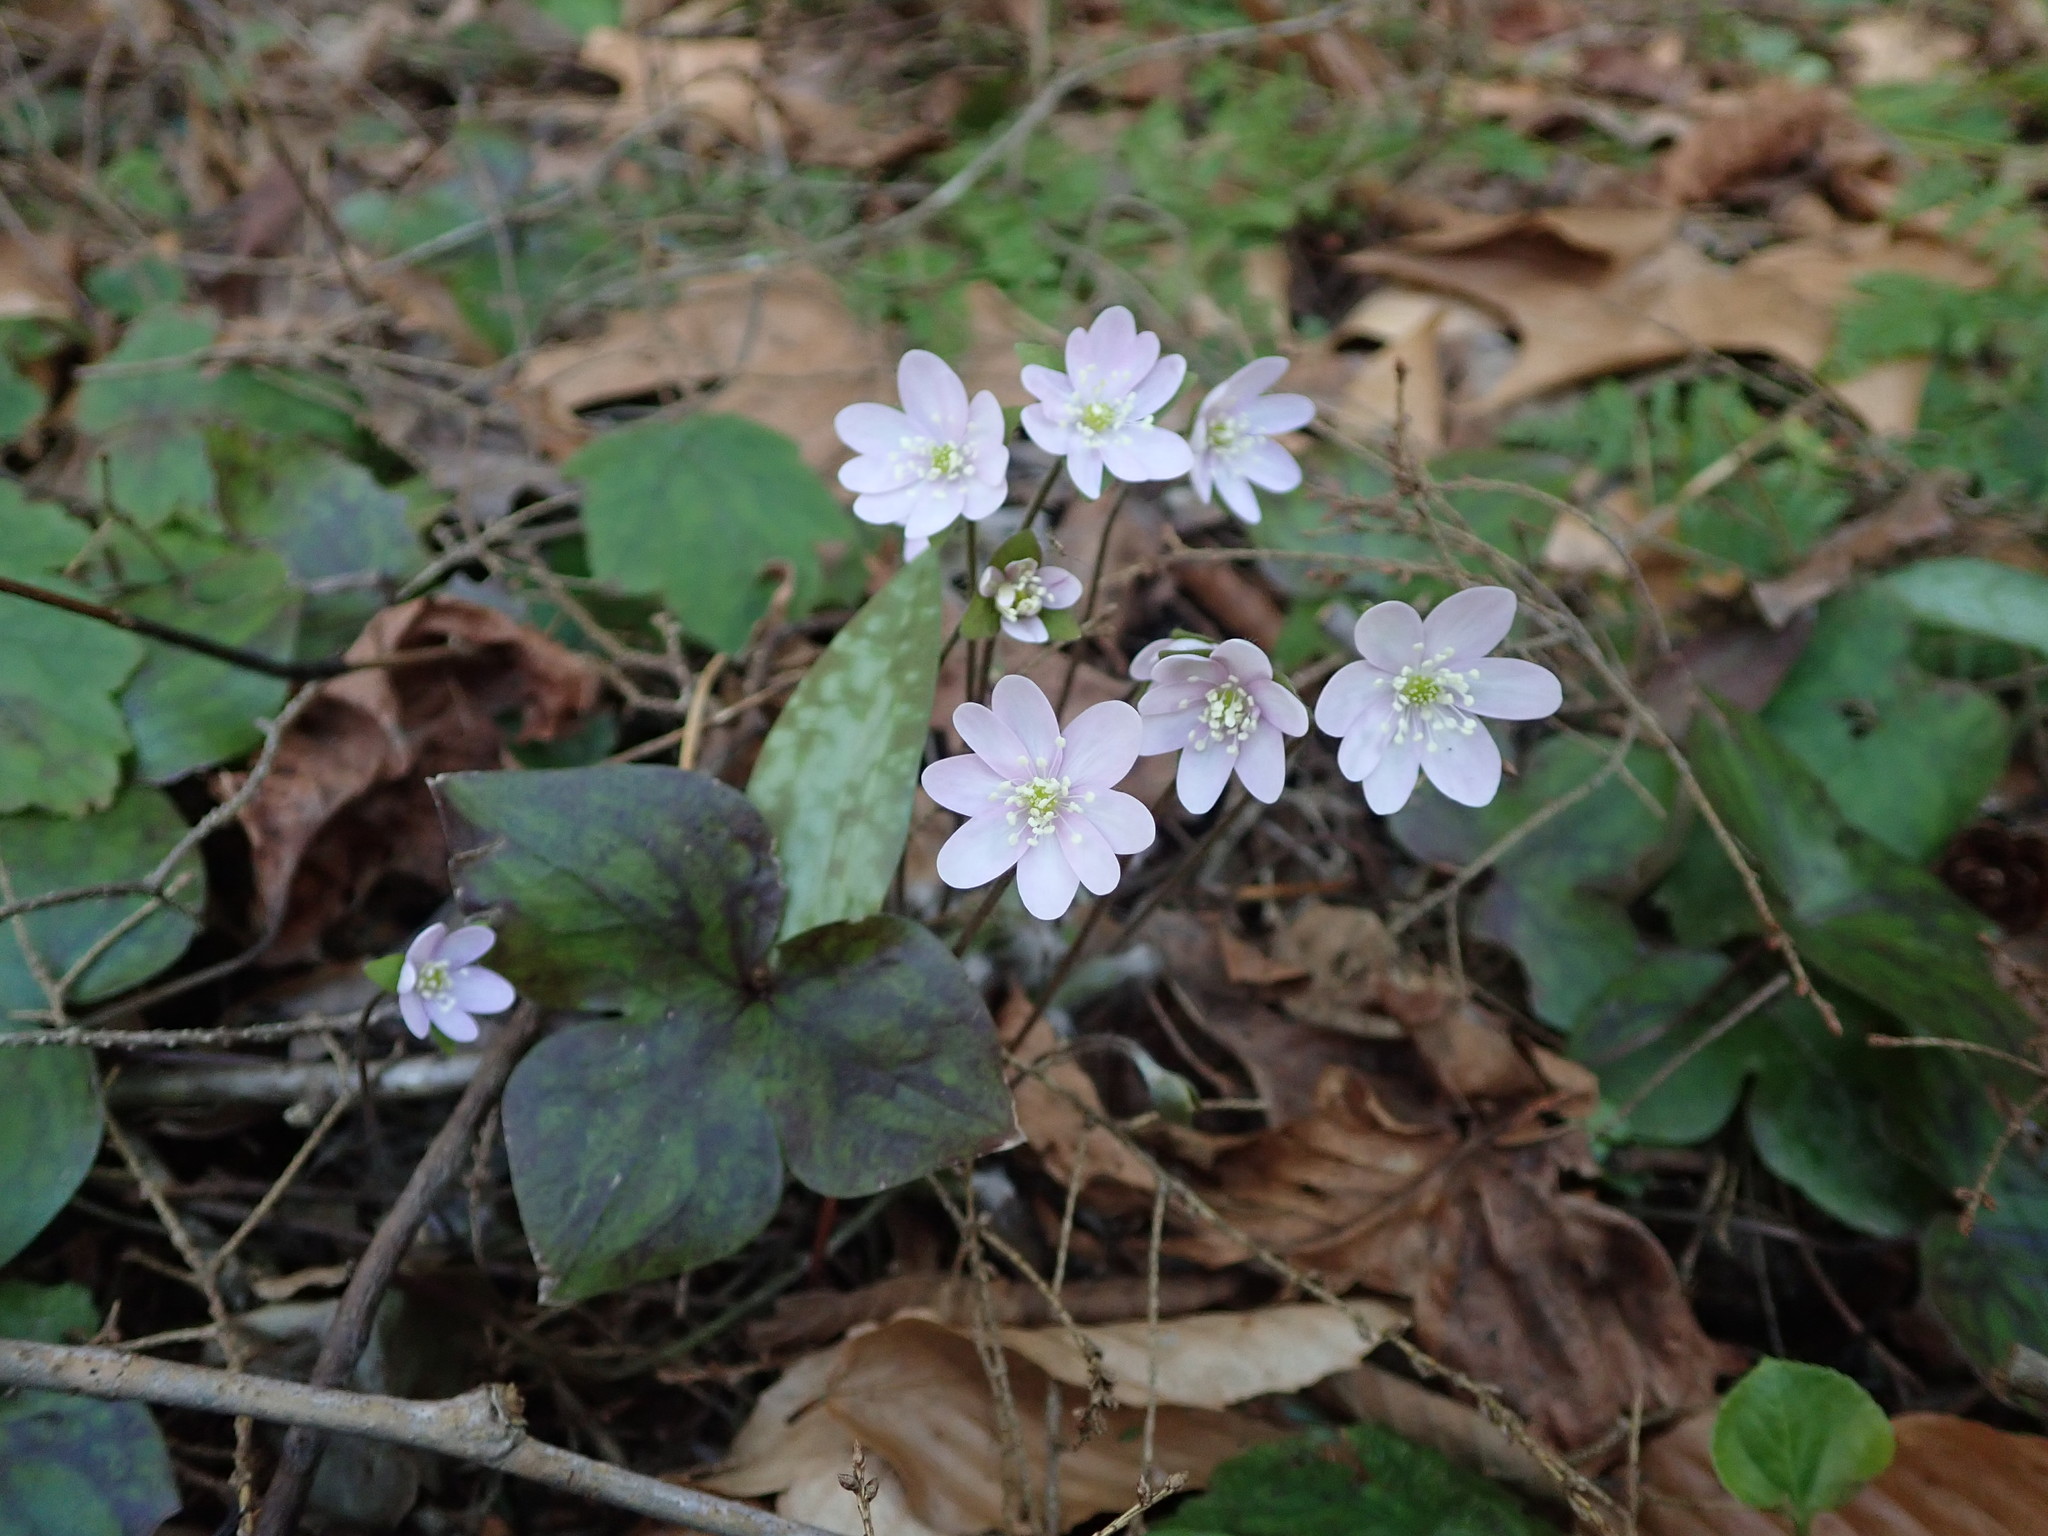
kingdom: Plantae
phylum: Tracheophyta
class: Magnoliopsida
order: Ranunculales
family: Ranunculaceae
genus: Hepatica
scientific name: Hepatica acutiloba
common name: Sharp-lobed hepatica
